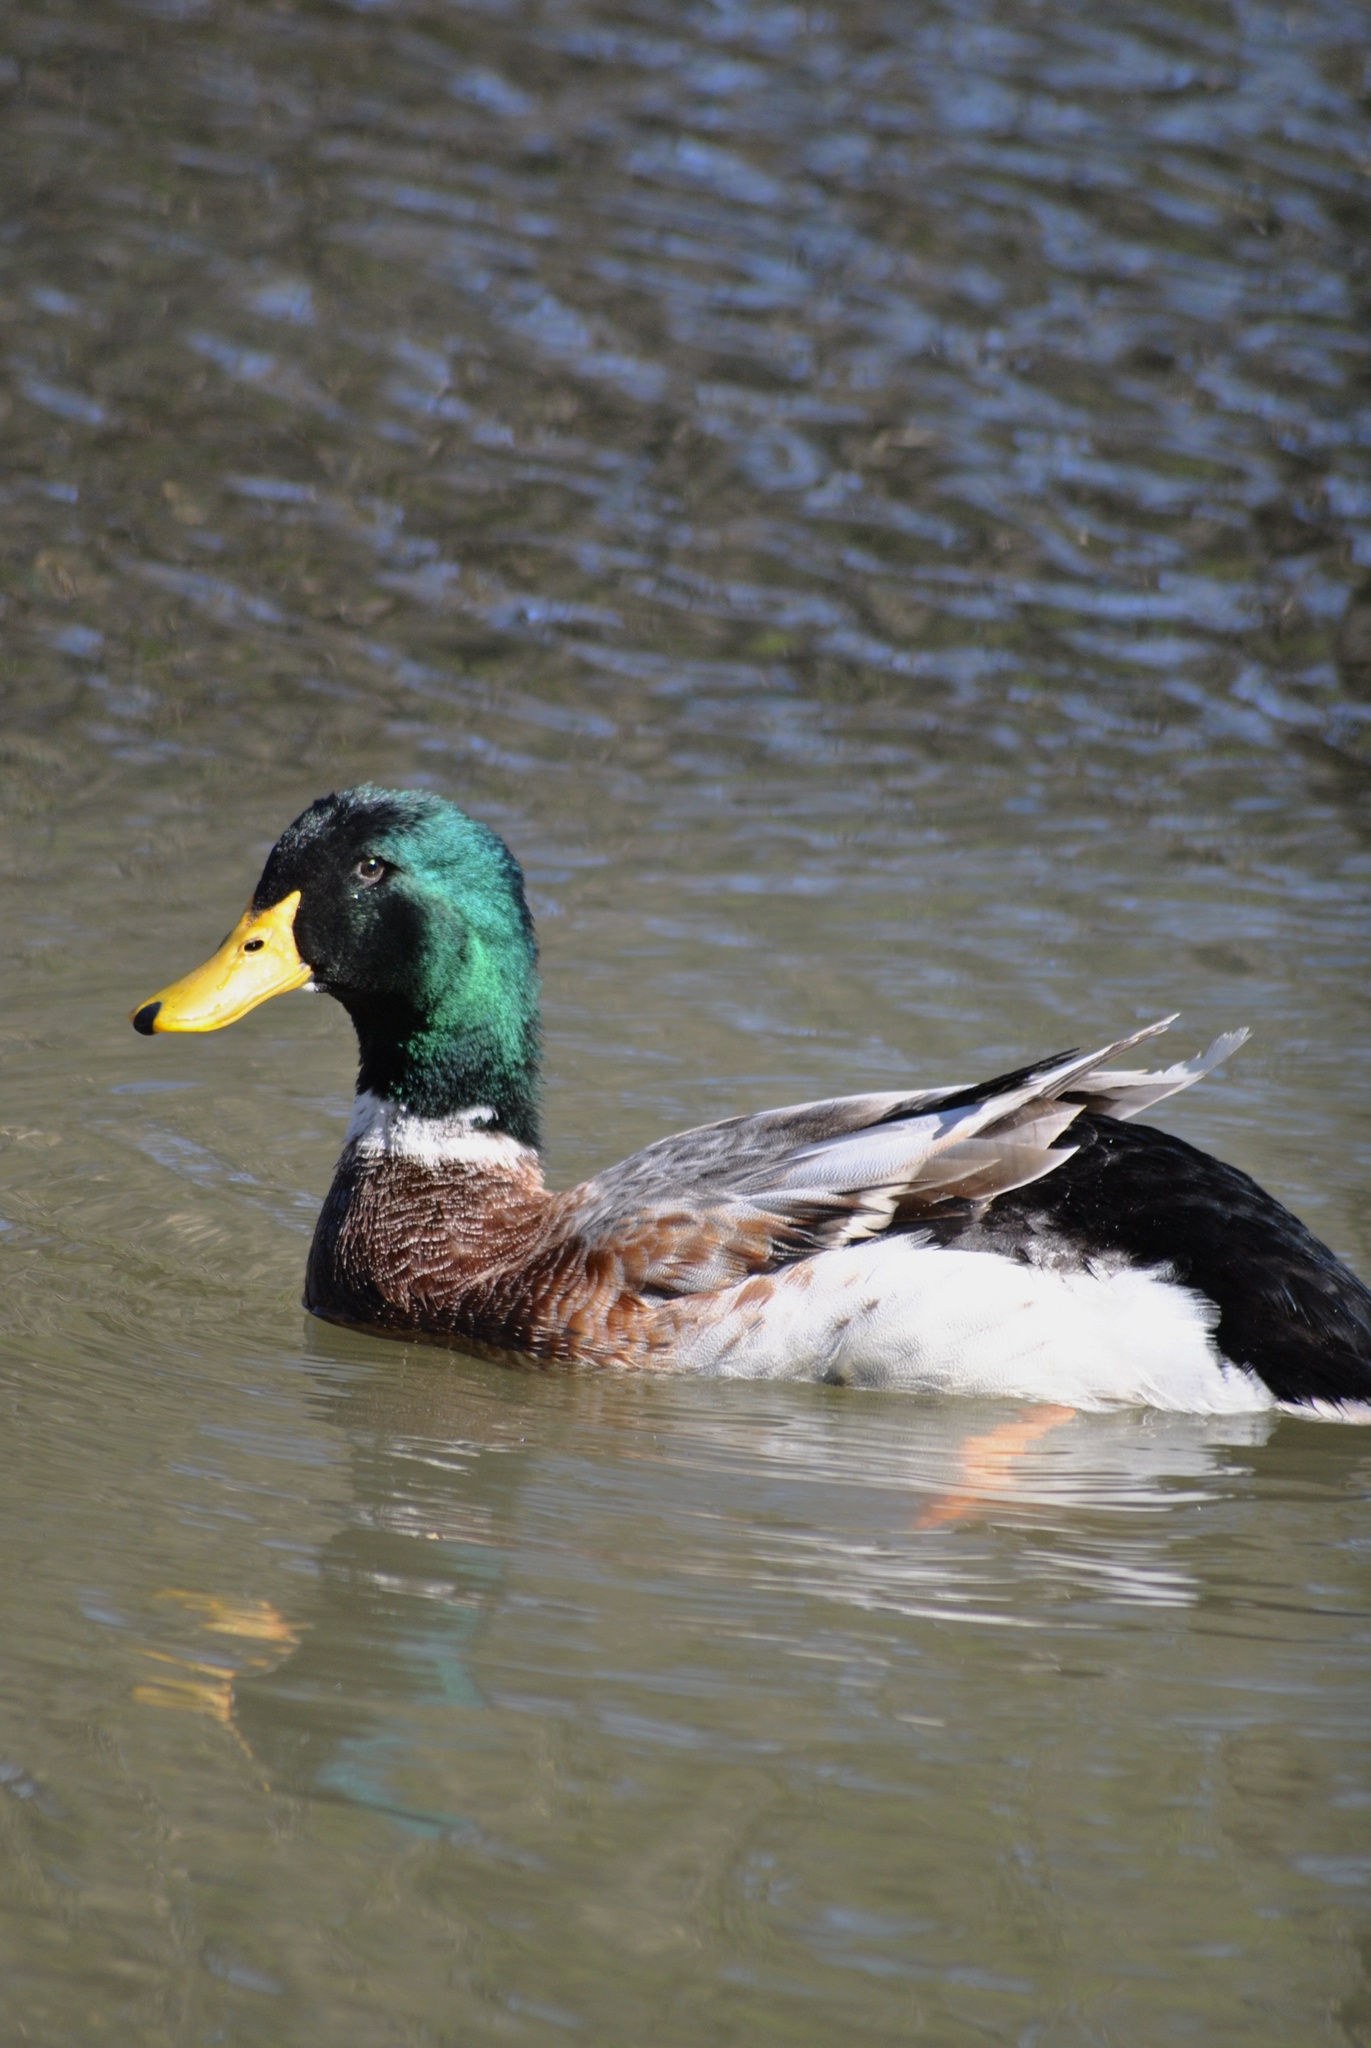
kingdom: Animalia
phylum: Chordata
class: Aves
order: Anseriformes
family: Anatidae
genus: Anas
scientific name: Anas platyrhynchos
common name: Mallard
